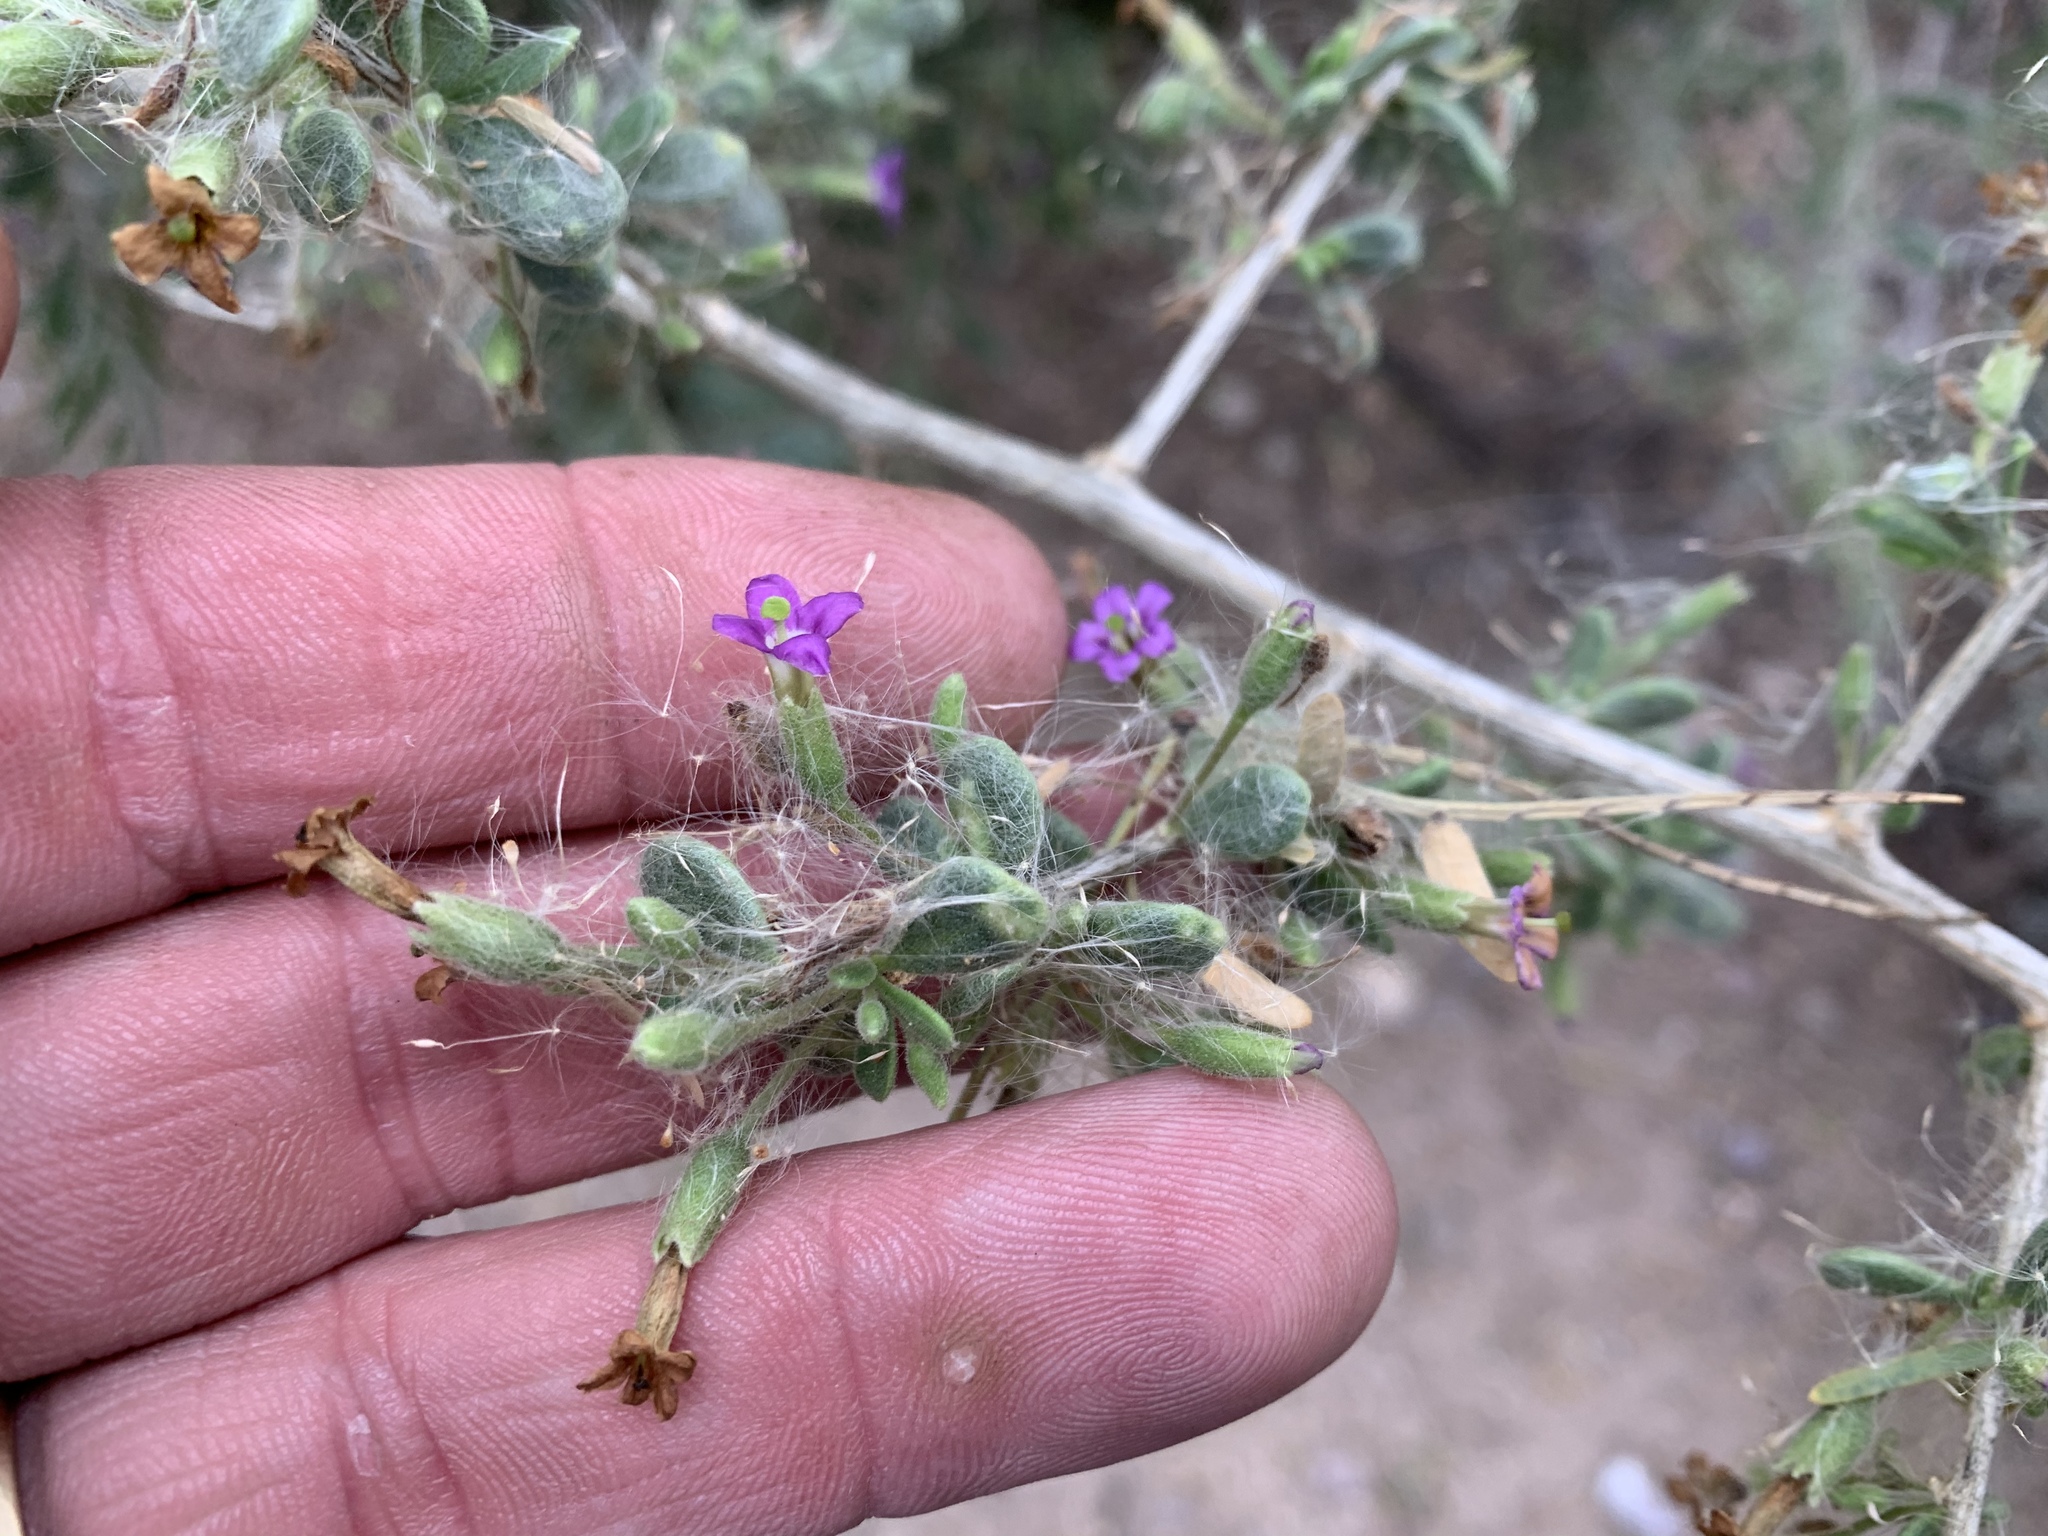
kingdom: Plantae
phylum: Tracheophyta
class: Magnoliopsida
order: Solanales
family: Solanaceae
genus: Lycium
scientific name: Lycium fremontii
